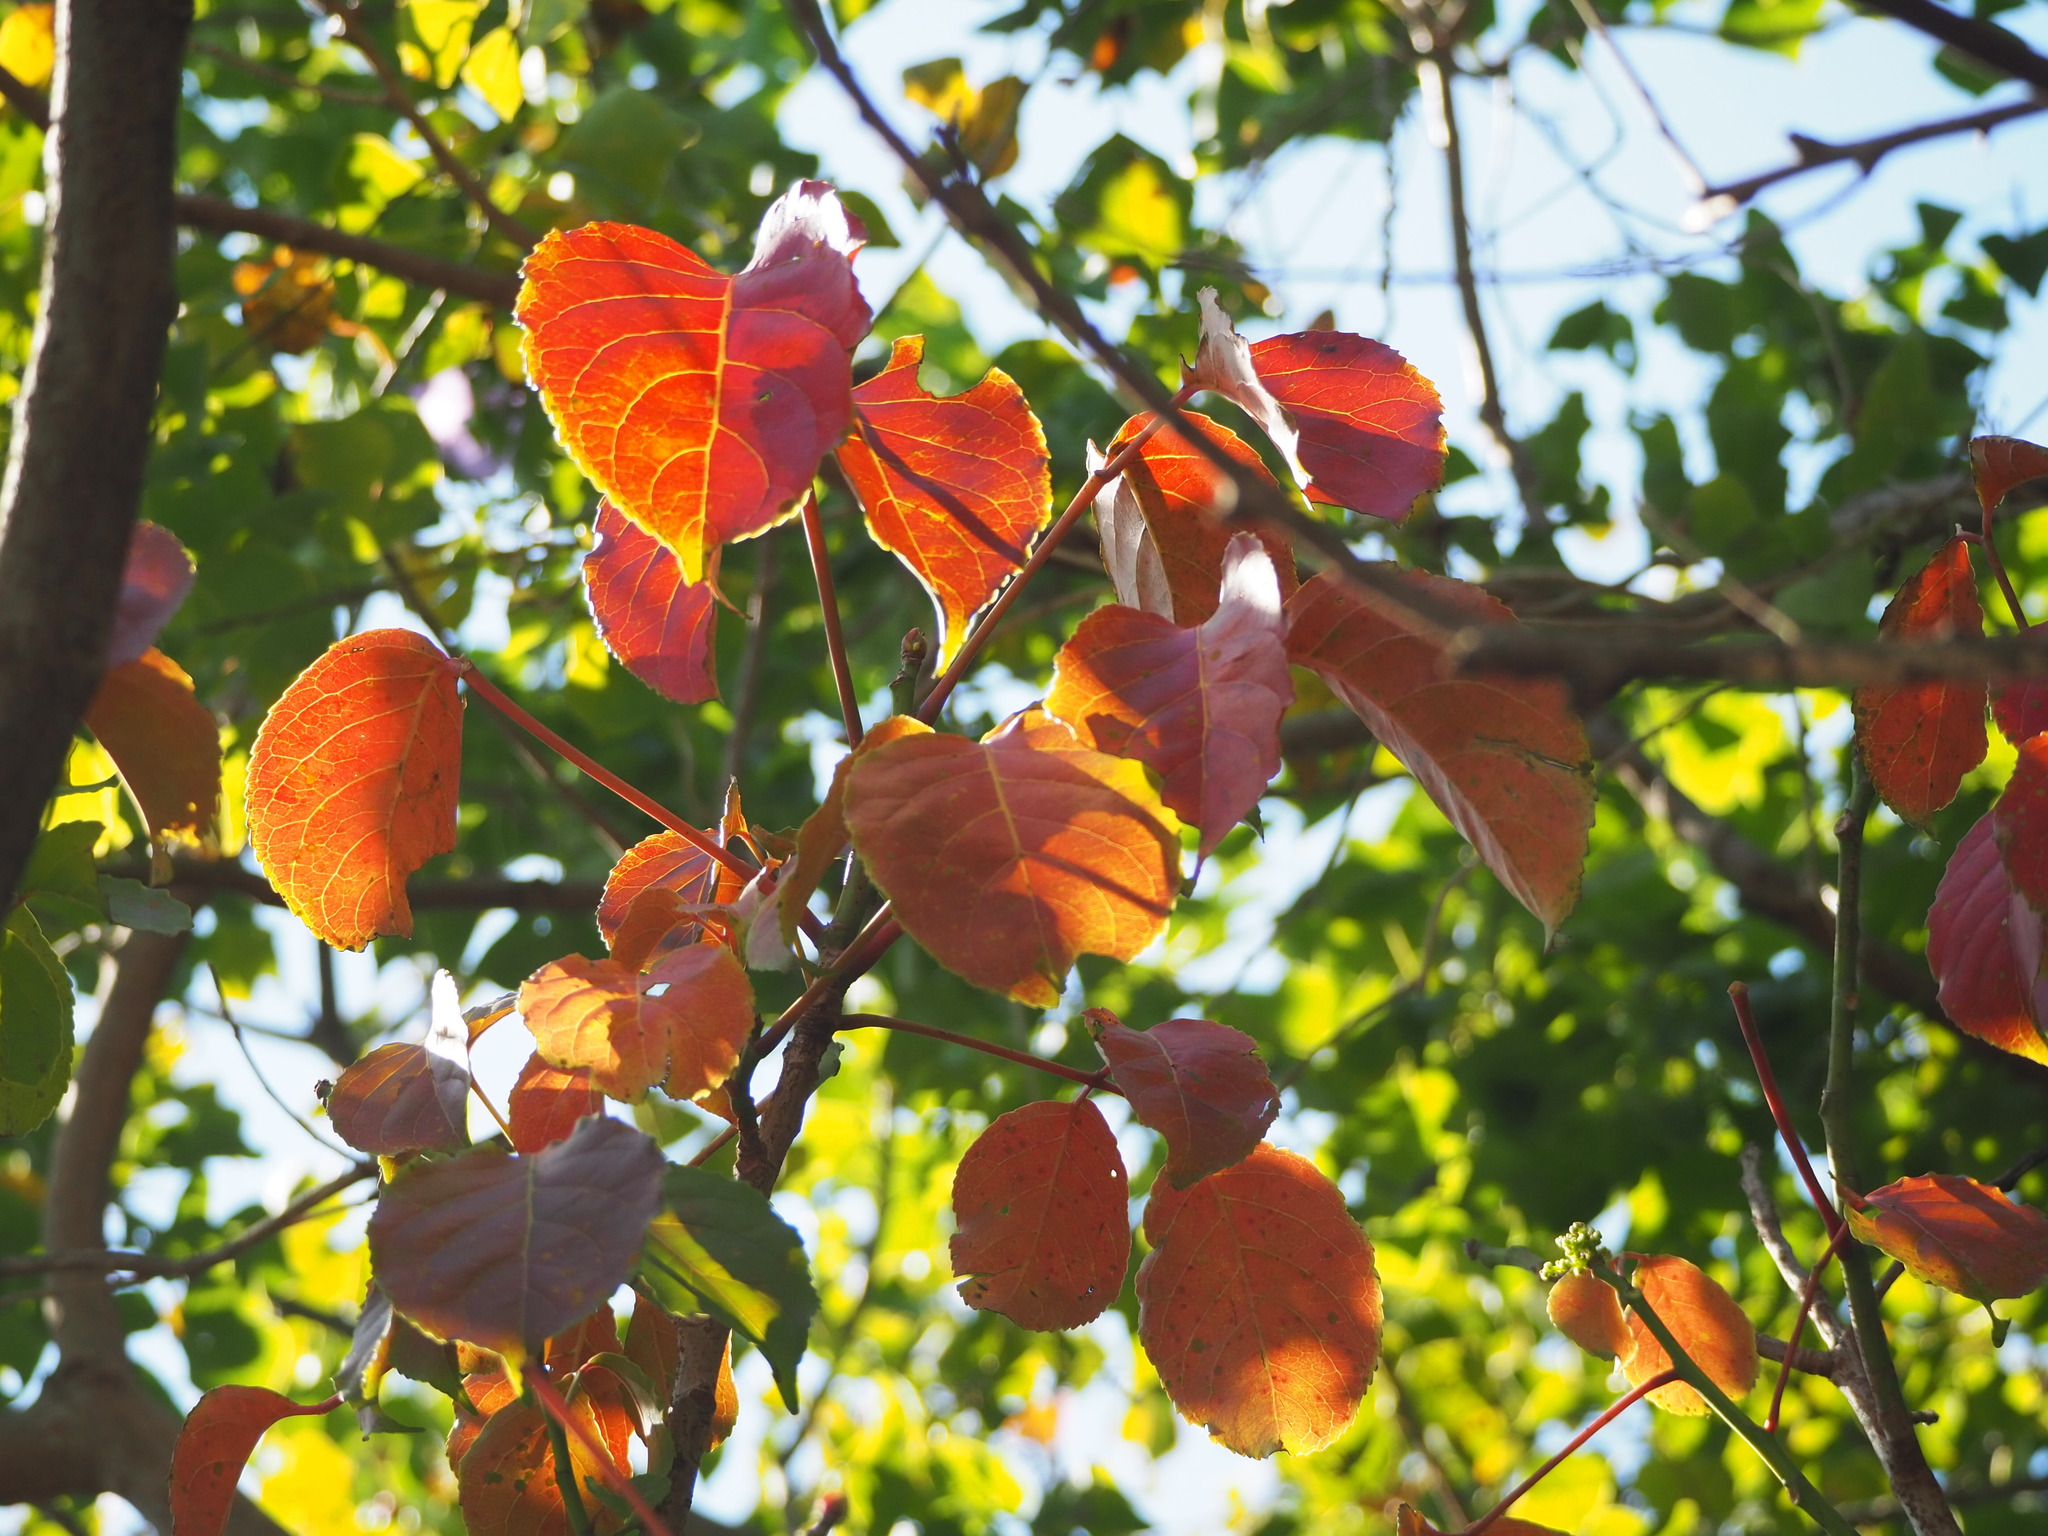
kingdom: Plantae
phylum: Tracheophyta
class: Magnoliopsida
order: Malpighiales
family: Phyllanthaceae
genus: Bischofia
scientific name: Bischofia javanica
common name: Javanese bishopwood
